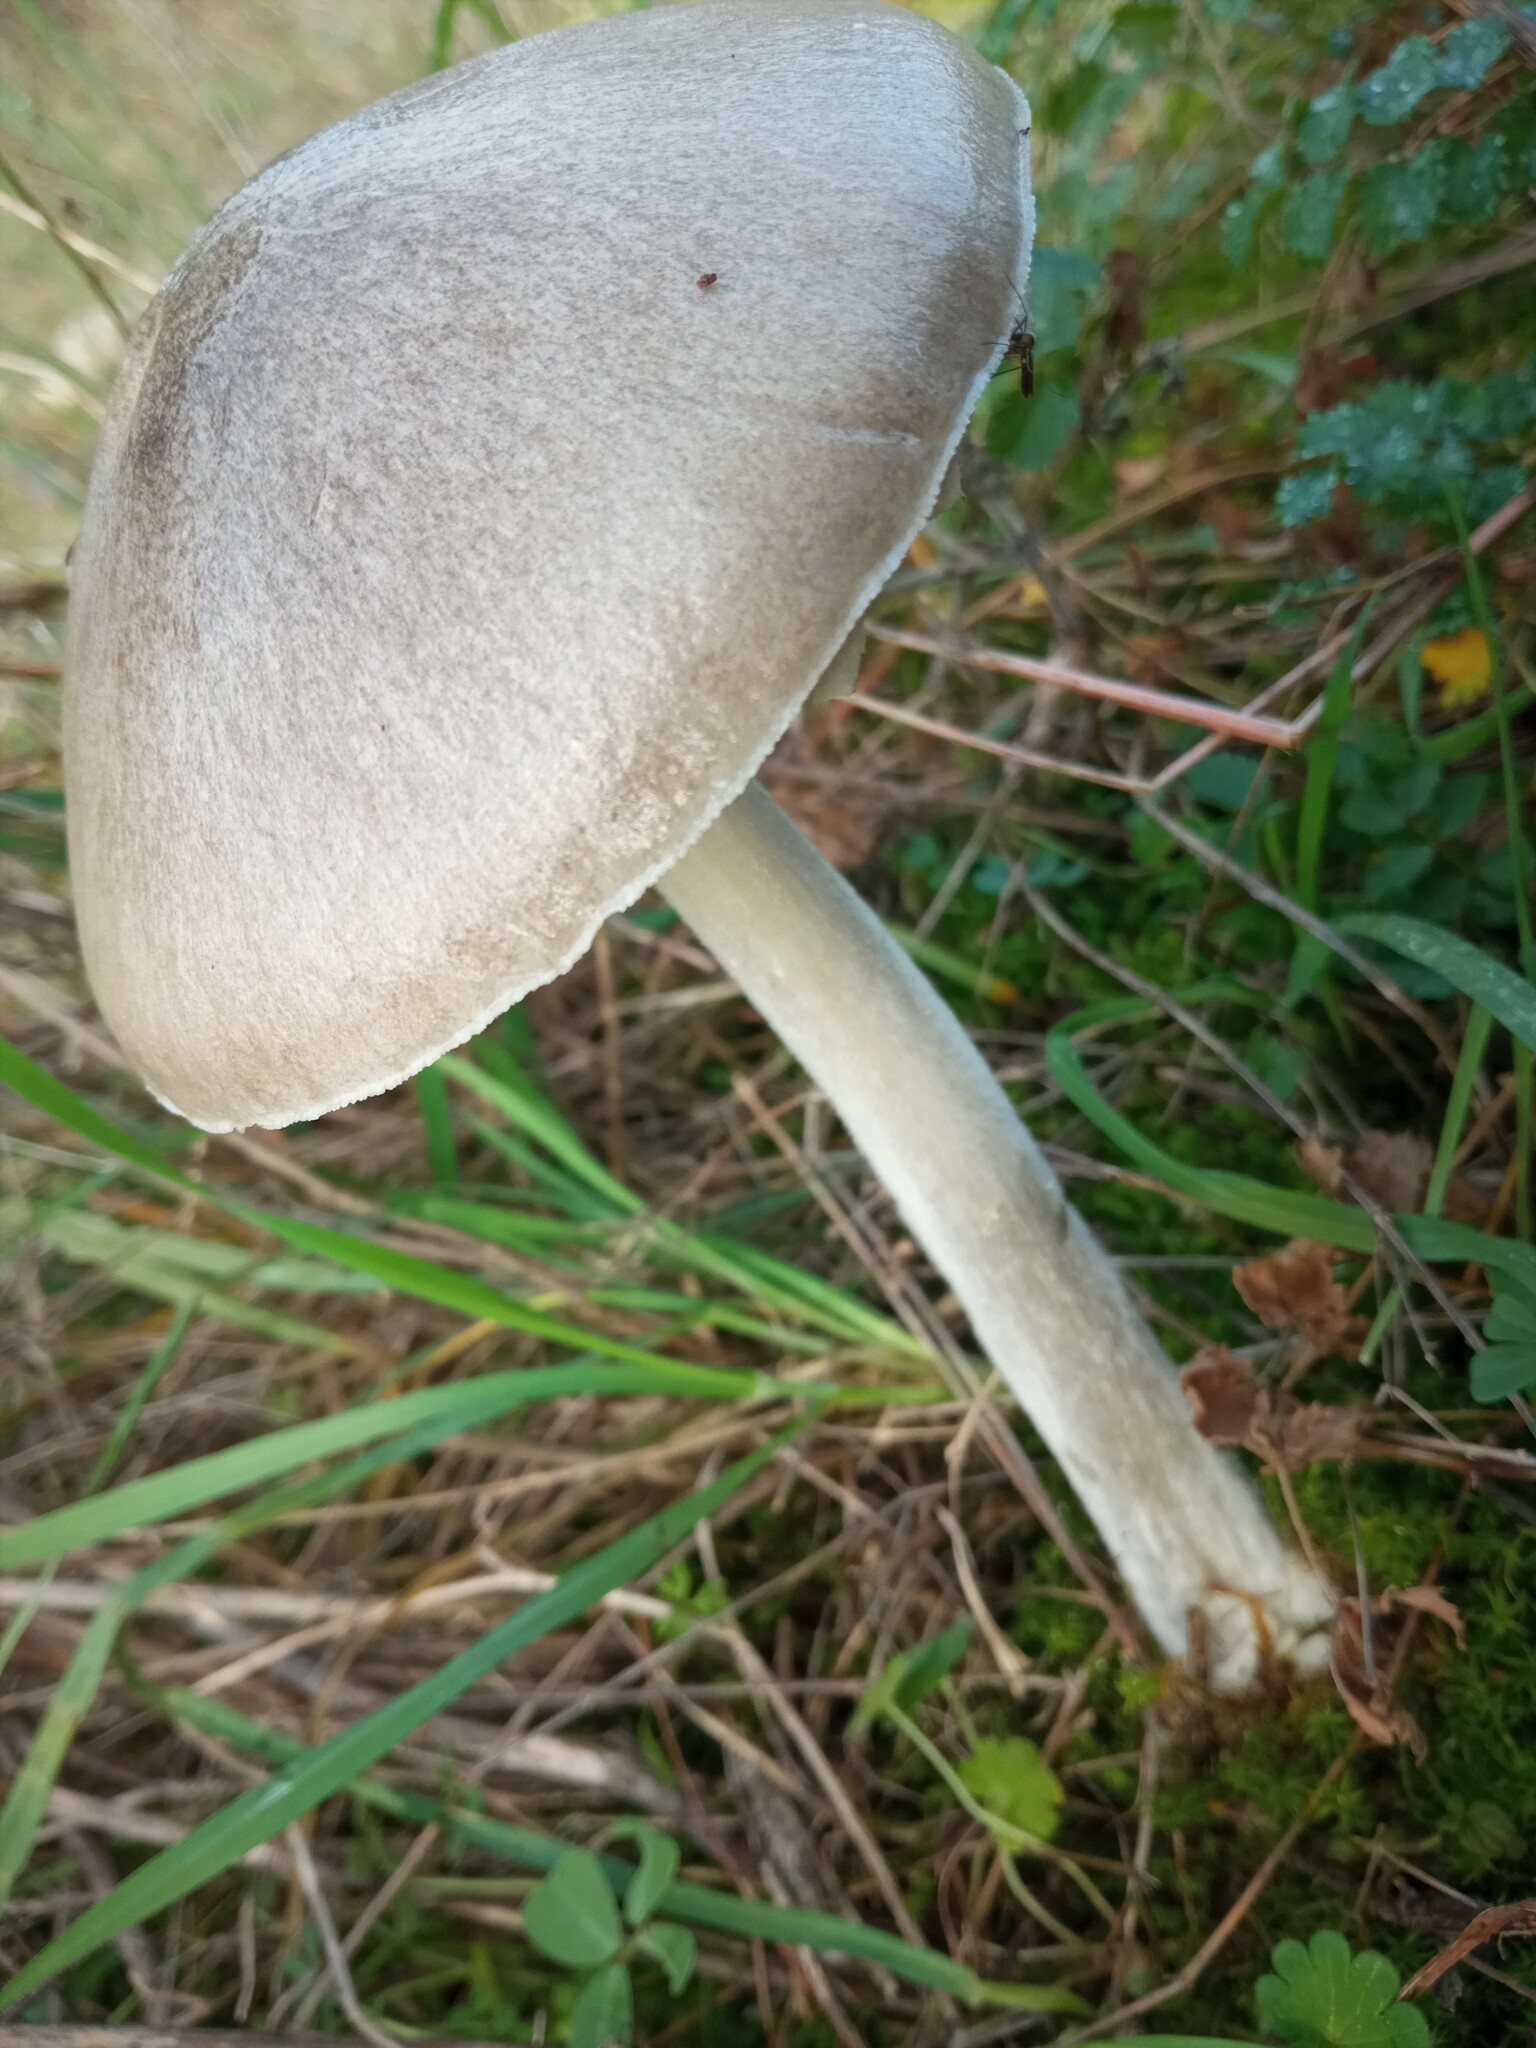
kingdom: Fungi
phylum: Basidiomycota
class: Agaricomycetes
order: Agaricales
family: Pluteaceae
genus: Volvopluteus
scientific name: Volvopluteus gloiocephalus
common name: Stubble rosegill
